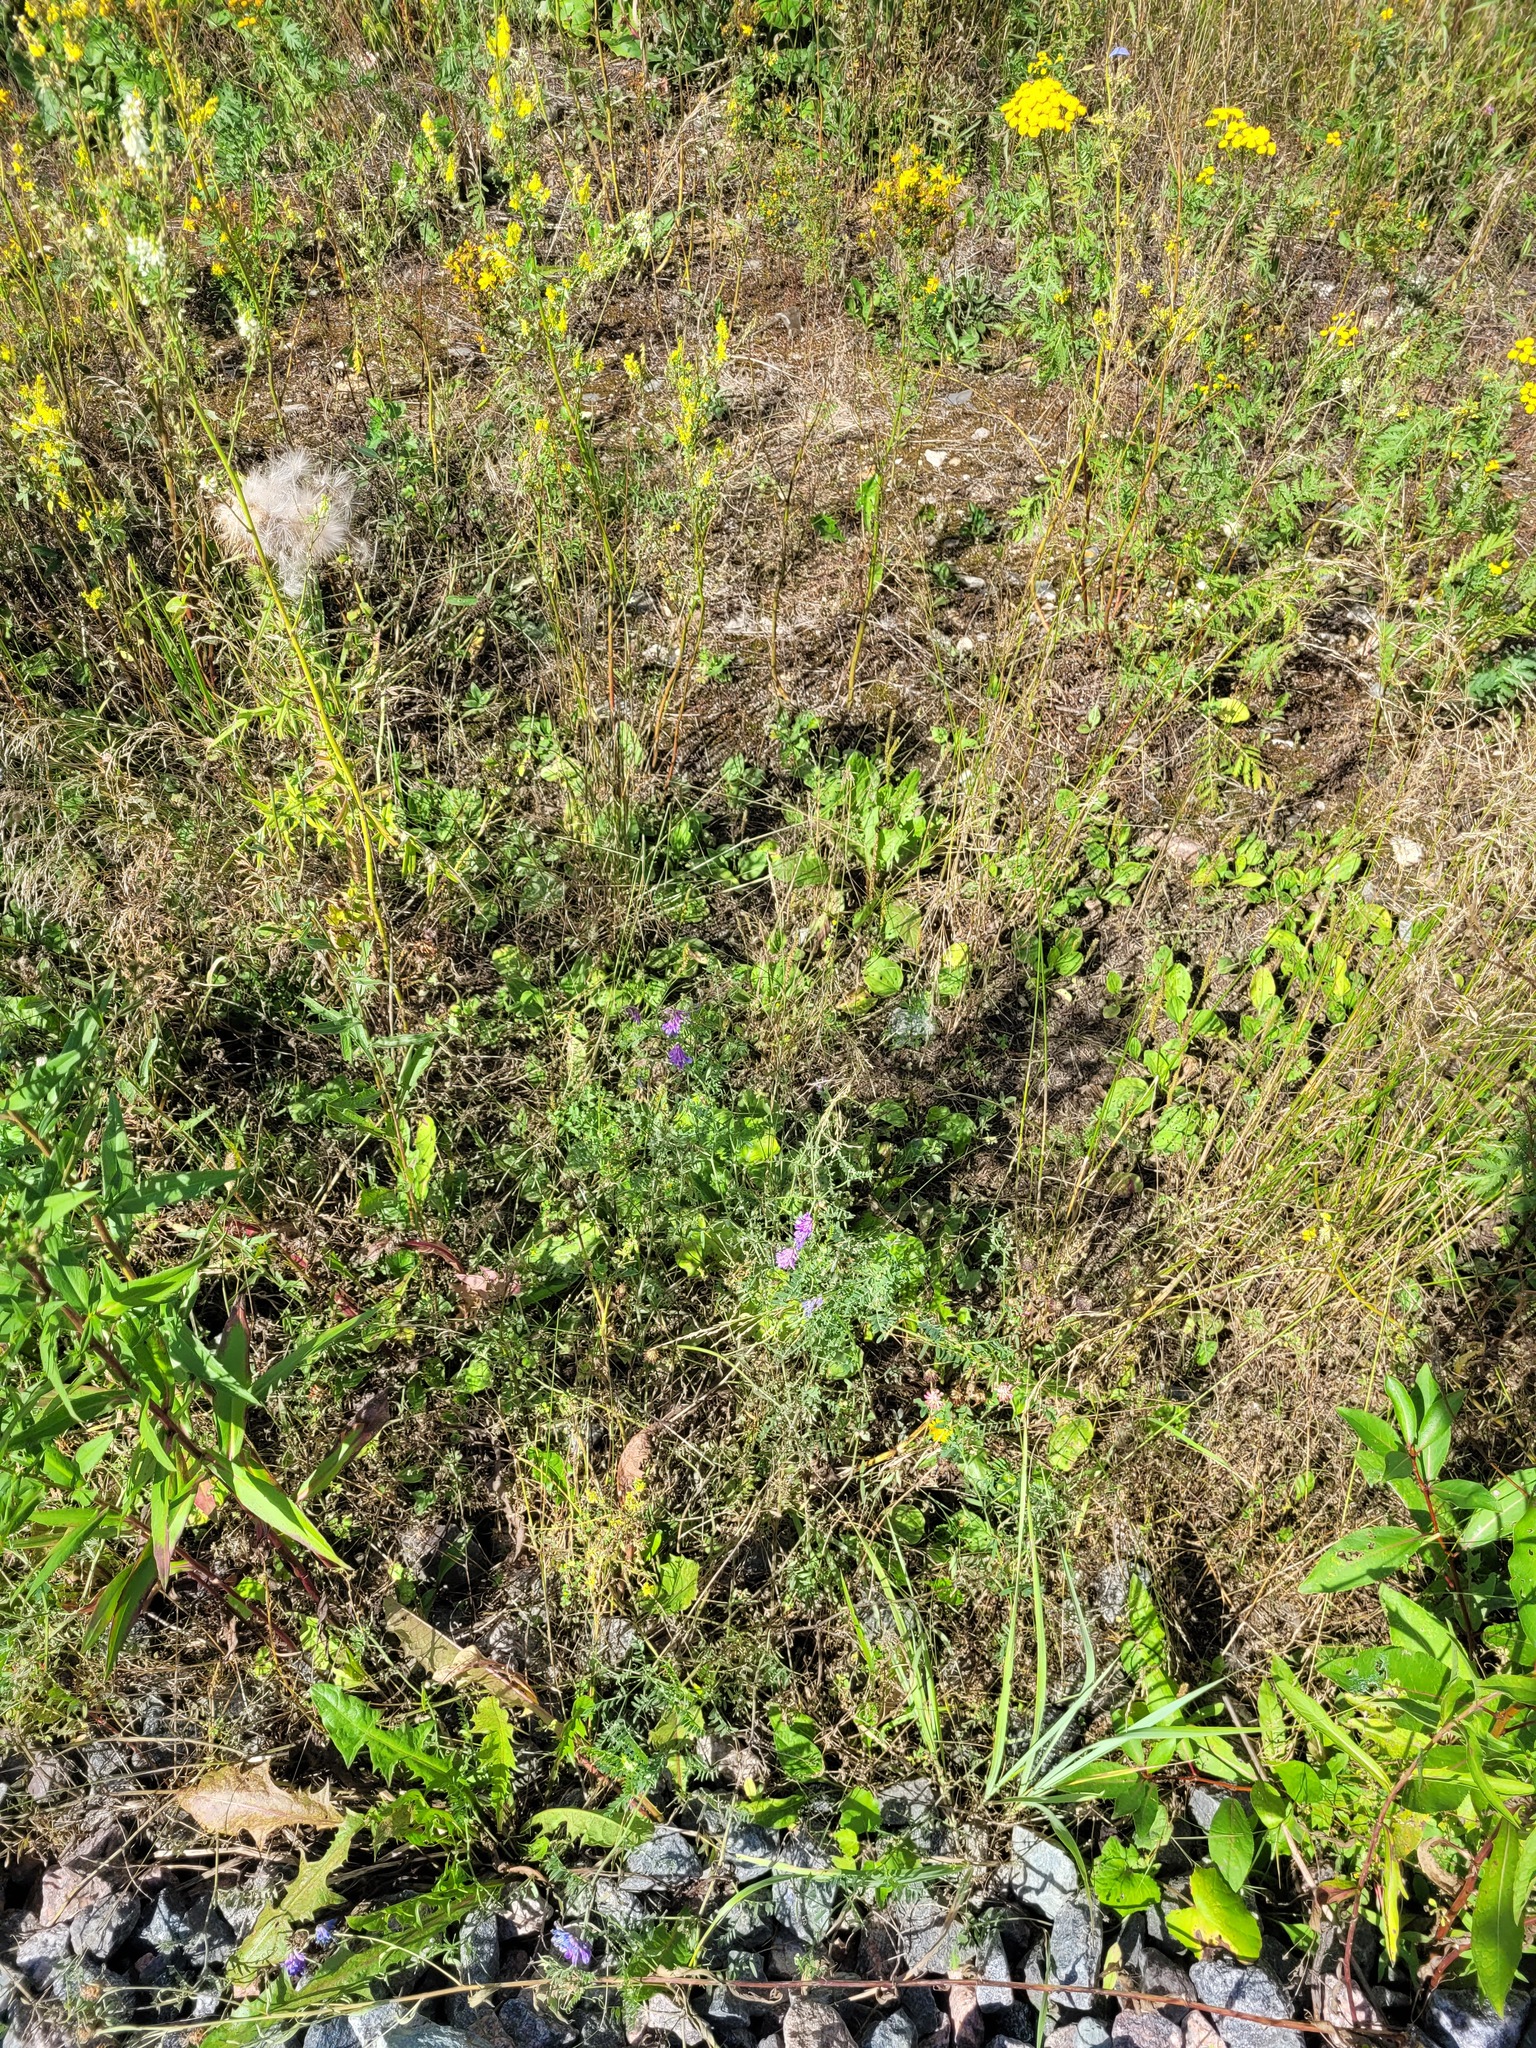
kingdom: Plantae
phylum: Tracheophyta
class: Magnoliopsida
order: Fabales
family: Fabaceae
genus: Vicia
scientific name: Vicia cracca
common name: Bird vetch
